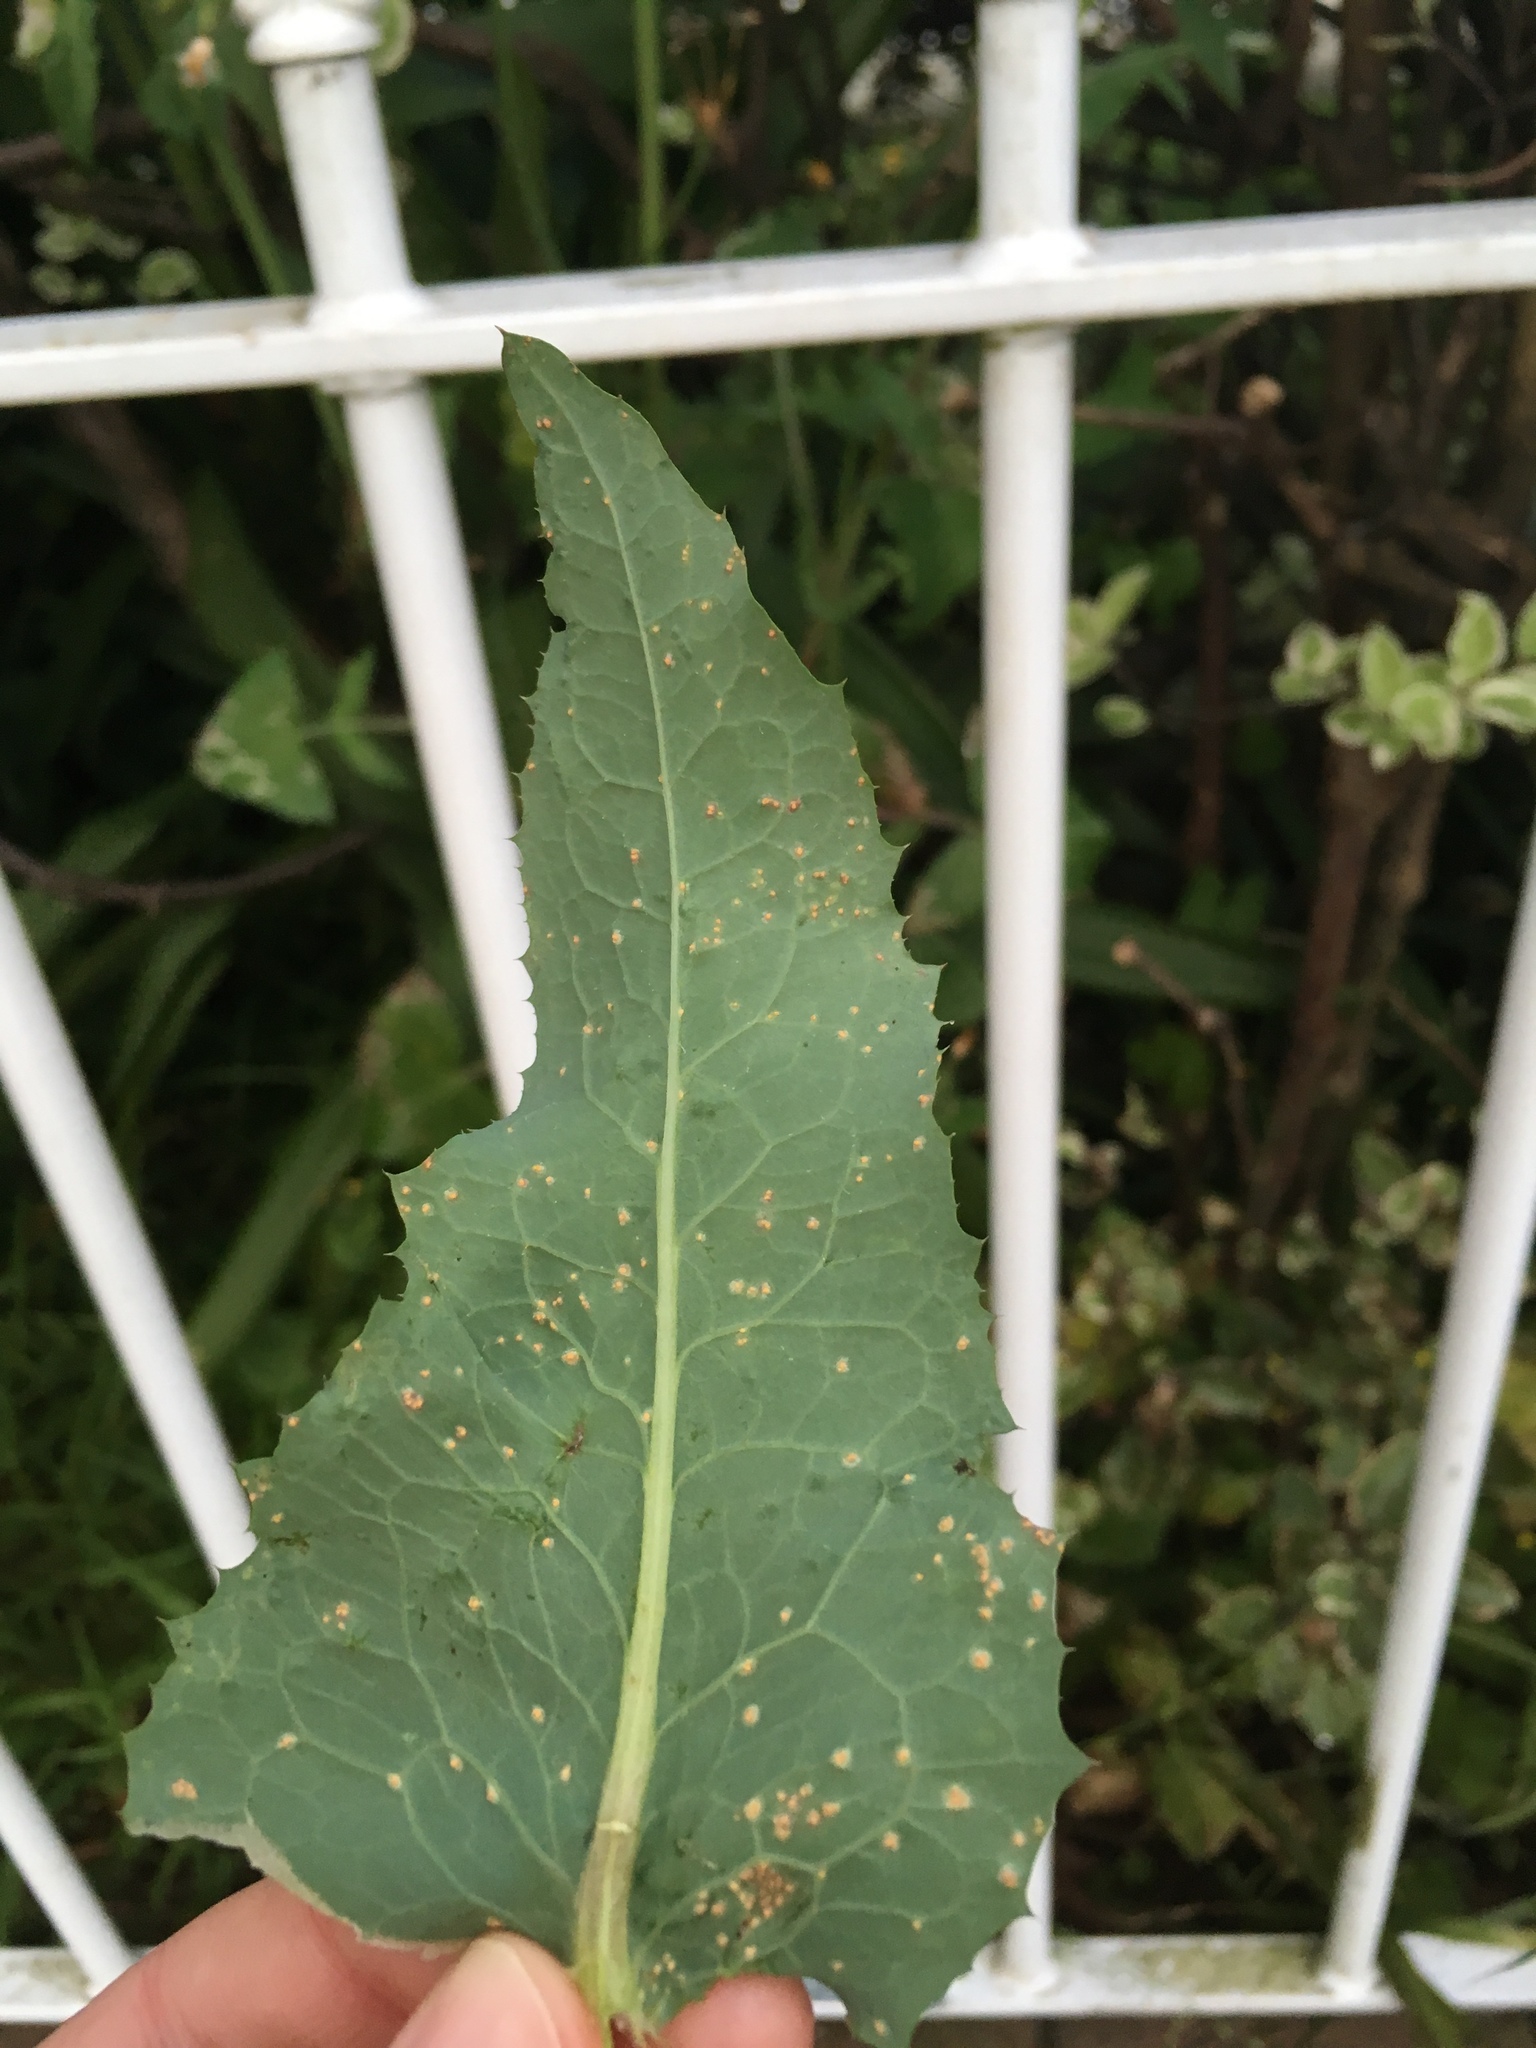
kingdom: Fungi
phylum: Basidiomycota
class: Pucciniomycetes
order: Pucciniales
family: Pucciniaceae
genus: Peristemma
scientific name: Peristemma pseudosphaeria
